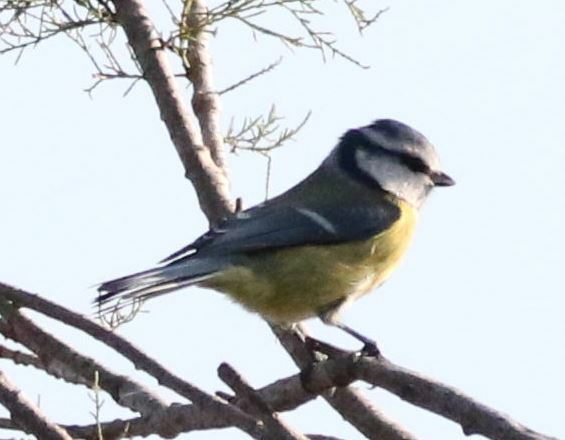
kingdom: Animalia
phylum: Chordata
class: Aves
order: Passeriformes
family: Paridae
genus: Cyanistes
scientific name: Cyanistes caeruleus
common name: Eurasian blue tit
